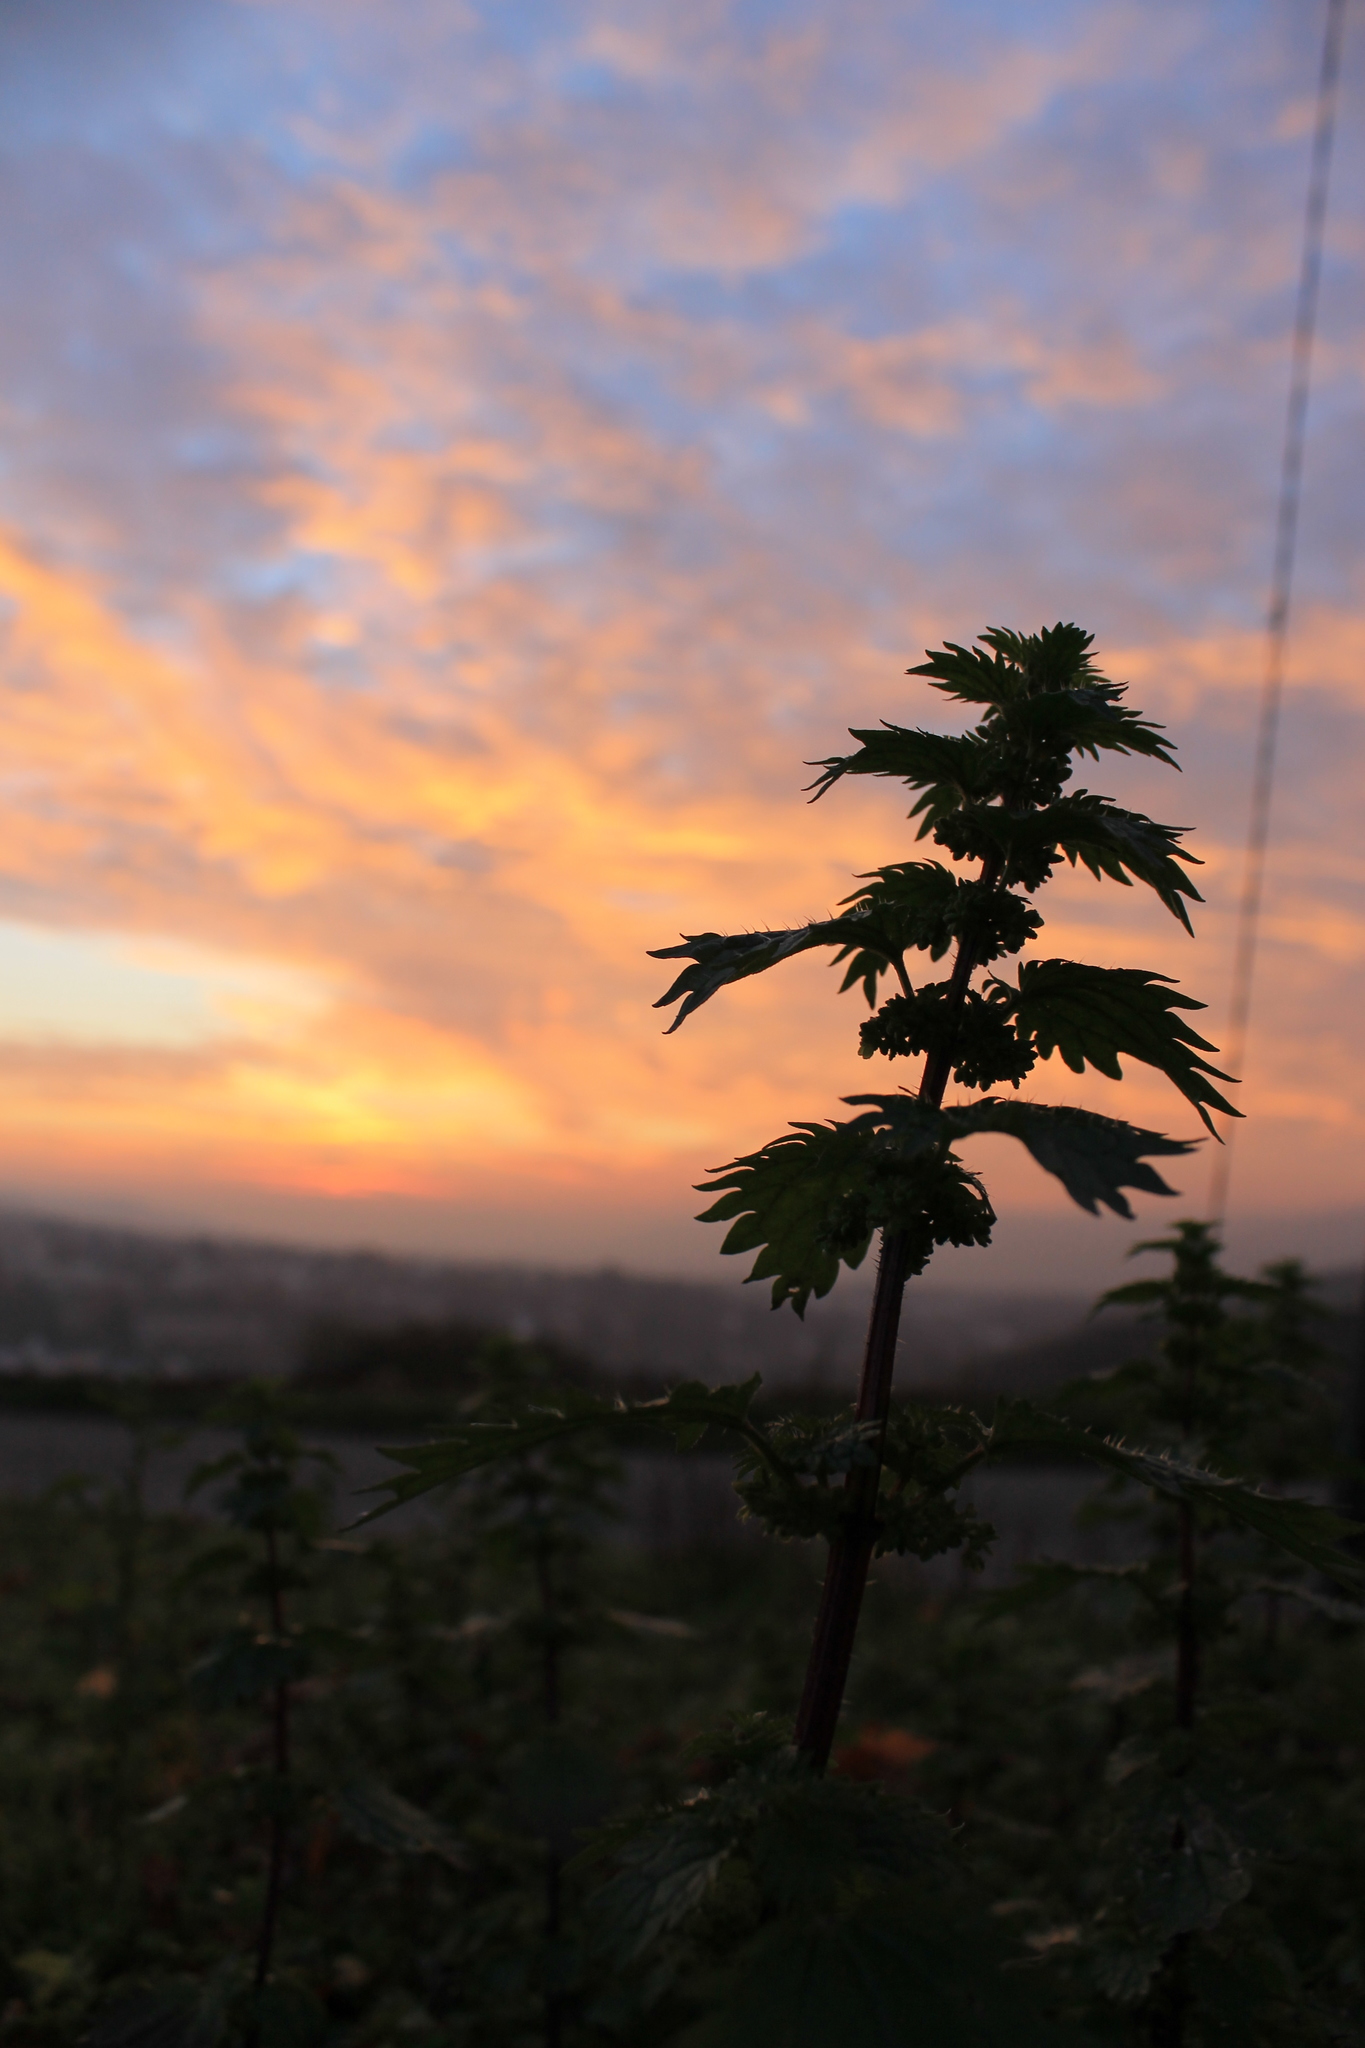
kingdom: Plantae
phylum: Tracheophyta
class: Magnoliopsida
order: Rosales
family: Urticaceae
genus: Urtica
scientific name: Urtica dioica
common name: Common nettle
